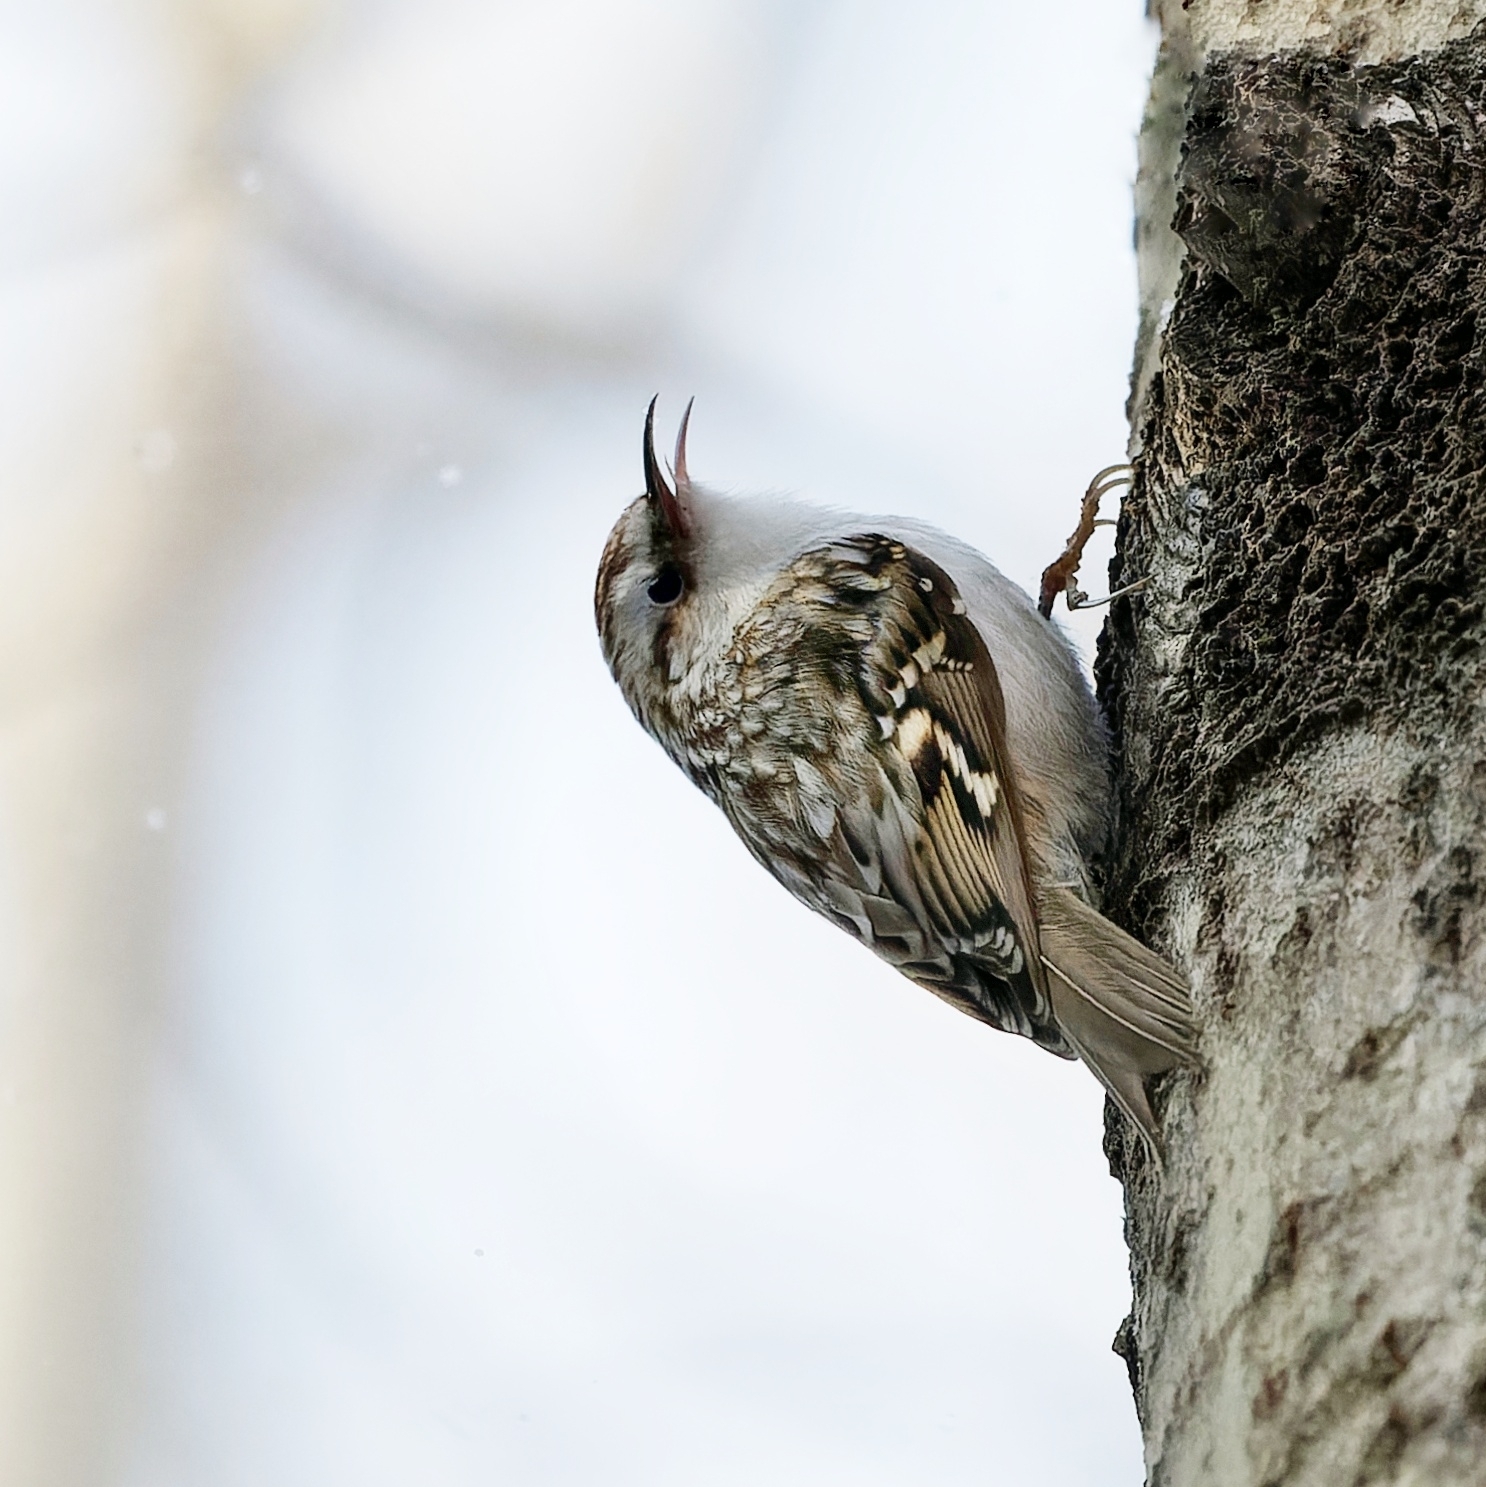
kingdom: Animalia
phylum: Chordata
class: Aves
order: Passeriformes
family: Certhiidae
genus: Certhia
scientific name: Certhia familiaris
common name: Eurasian treecreeper
